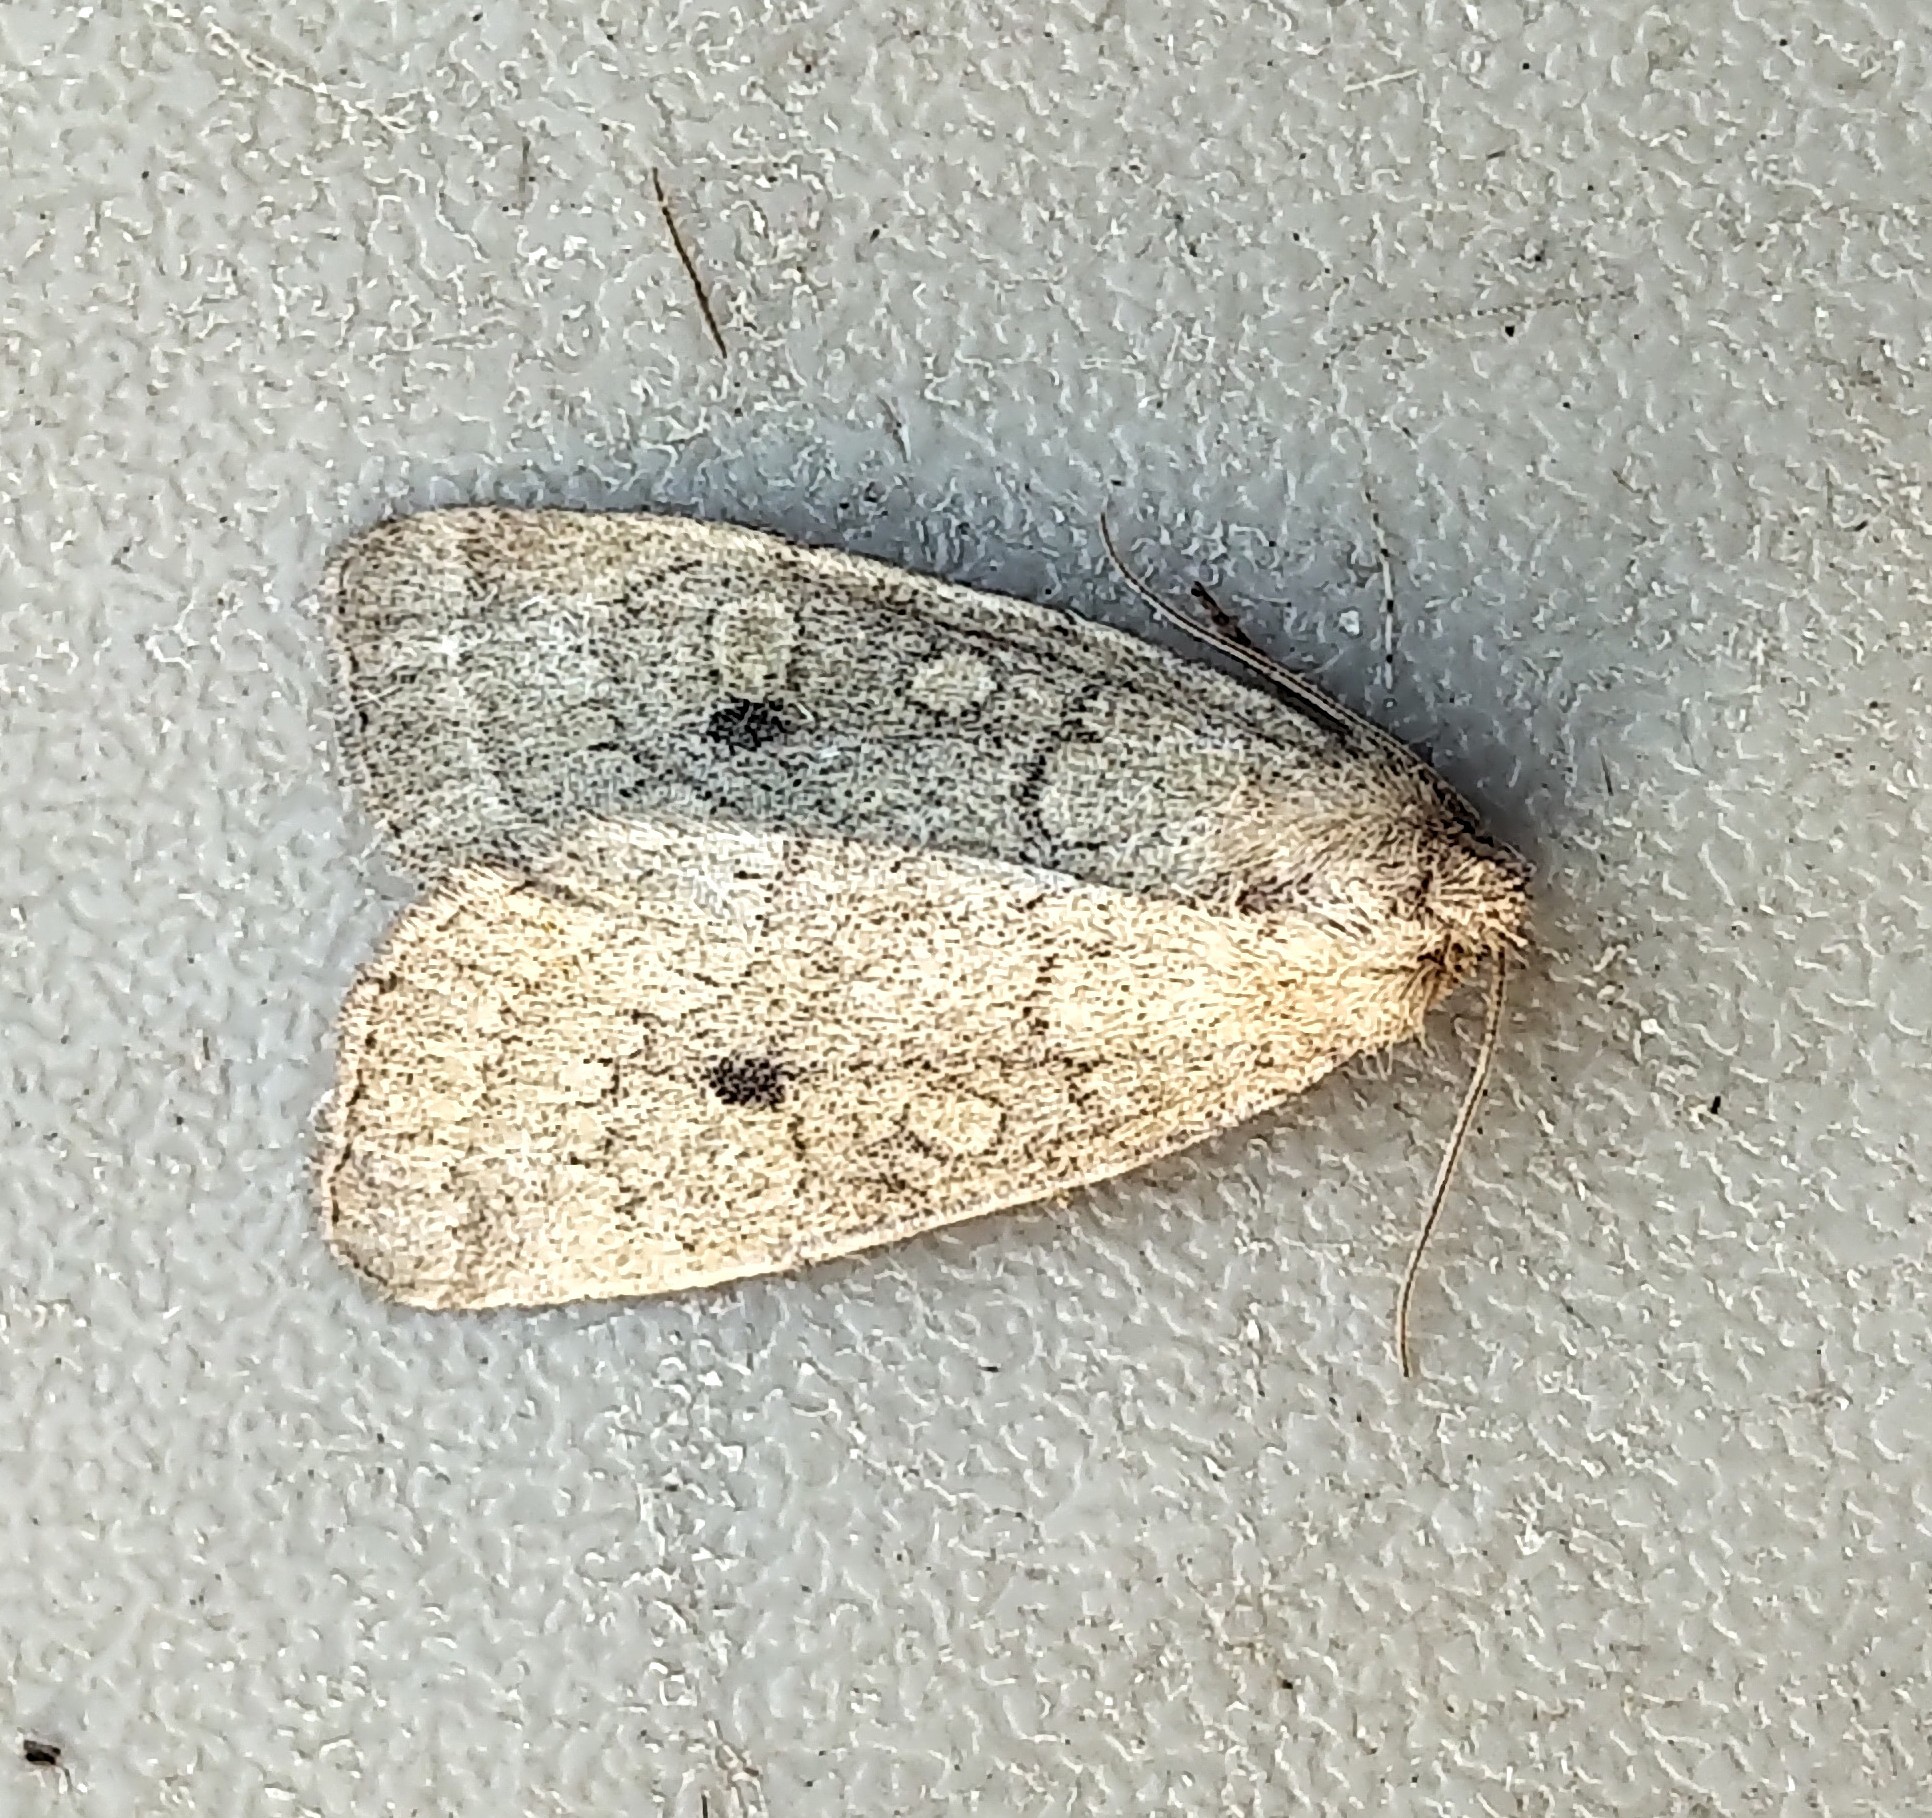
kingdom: Animalia
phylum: Arthropoda
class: Insecta
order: Lepidoptera
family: Noctuidae
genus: Photedes
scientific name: Photedes inops
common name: Spartina borer moth
